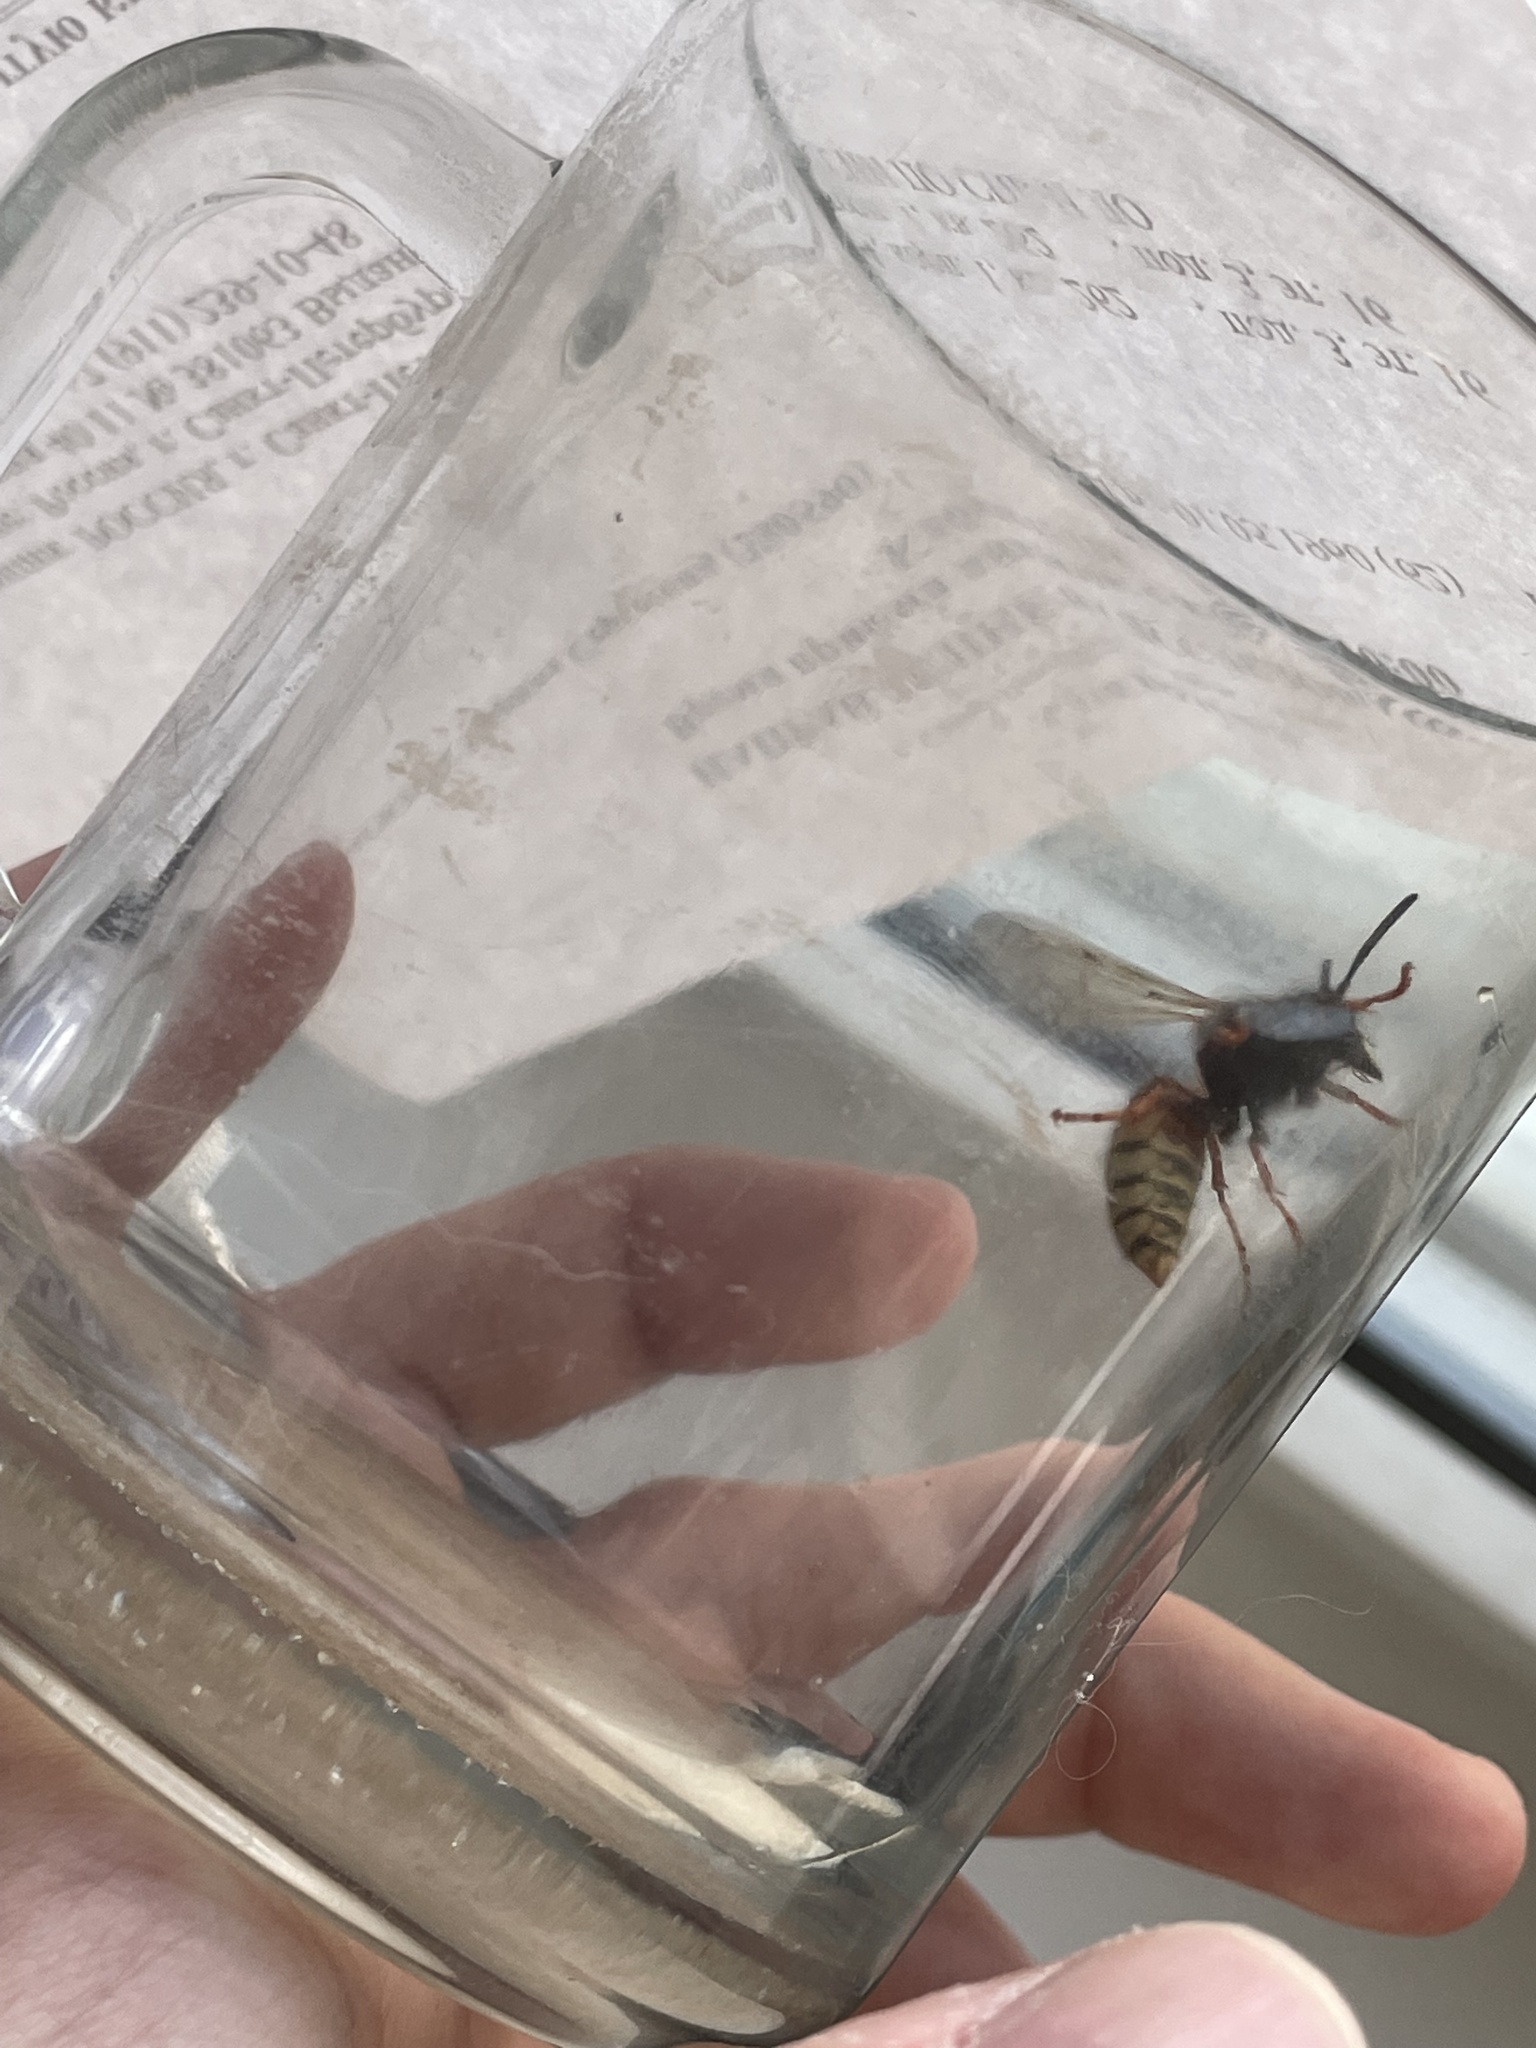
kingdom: Animalia
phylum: Arthropoda
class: Insecta
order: Hymenoptera
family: Vespidae
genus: Vespula
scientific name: Vespula rufa
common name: Red wasp
